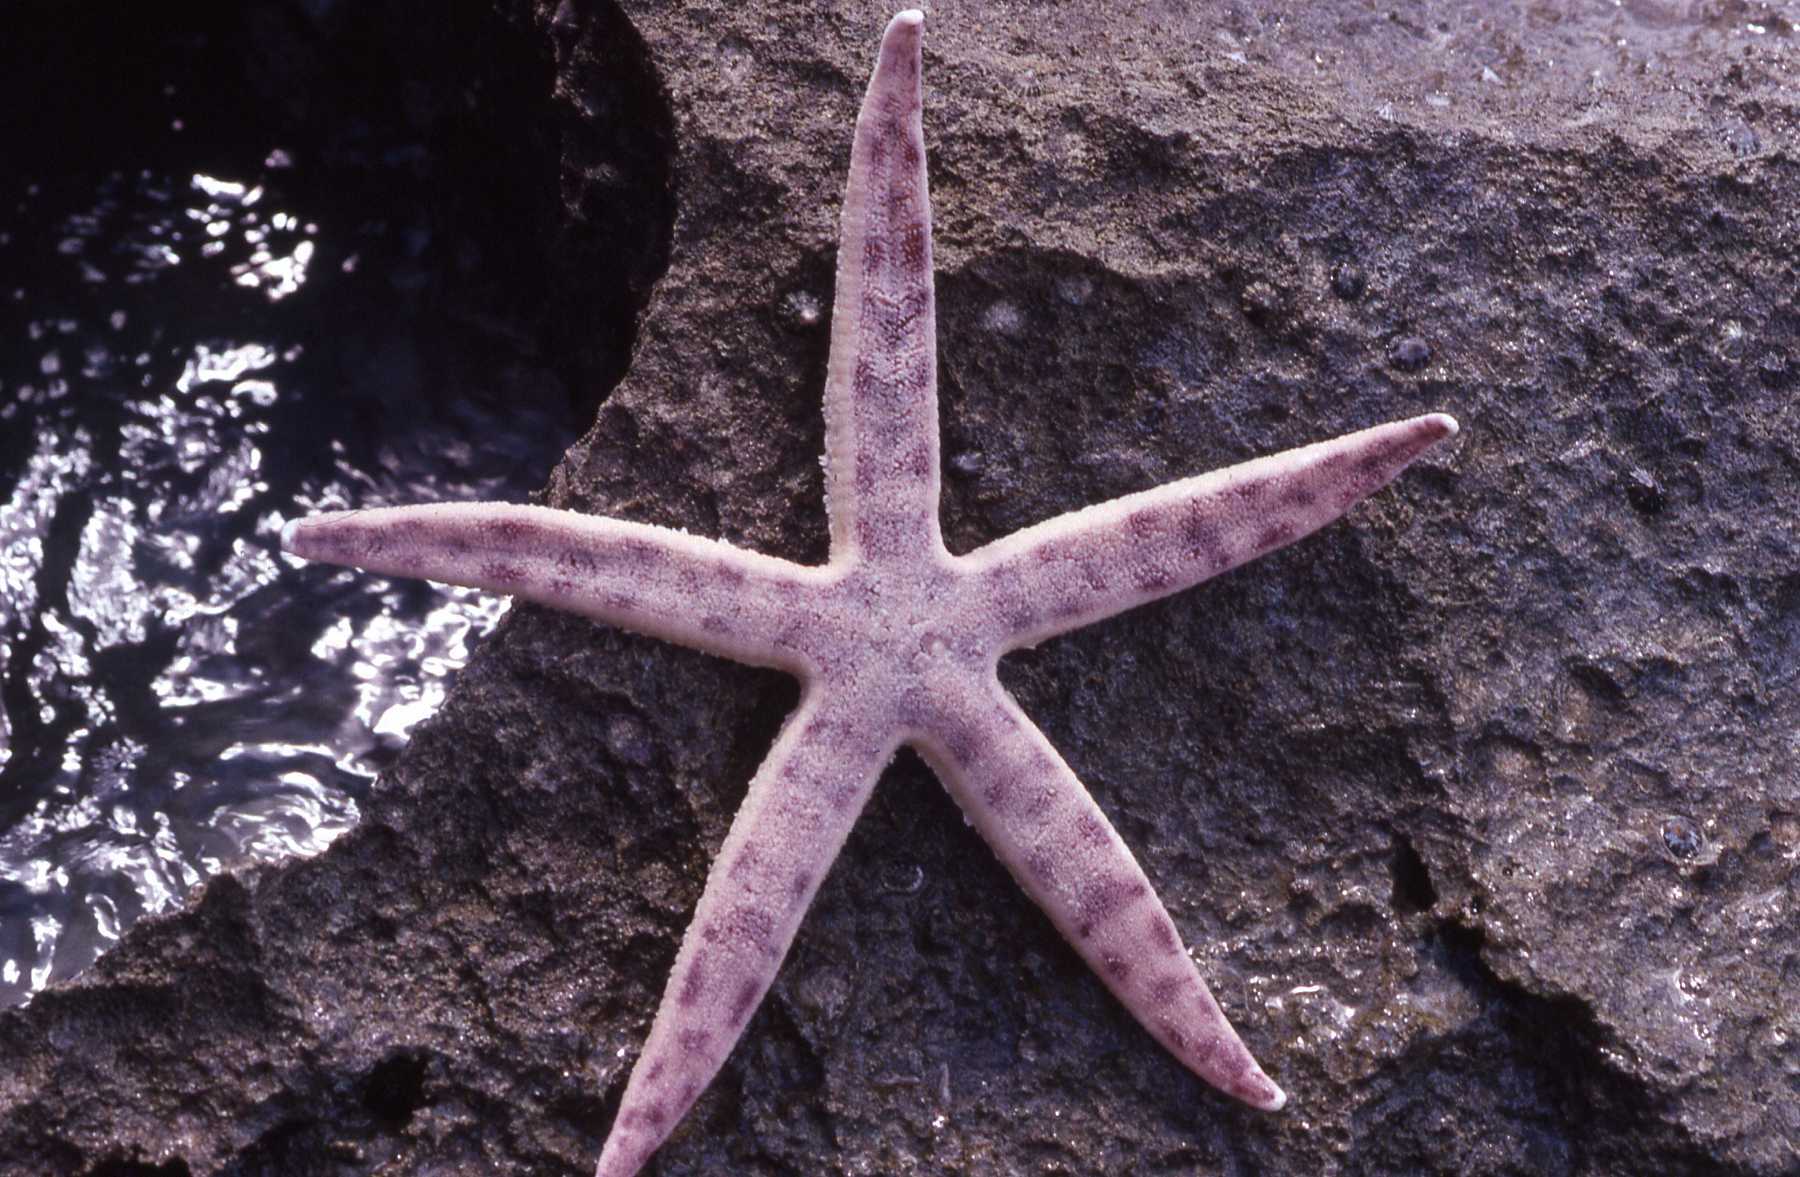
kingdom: Animalia
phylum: Echinodermata
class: Asteroidea
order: Valvatida
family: Archasteridae
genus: Archaster
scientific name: Archaster lorioli
